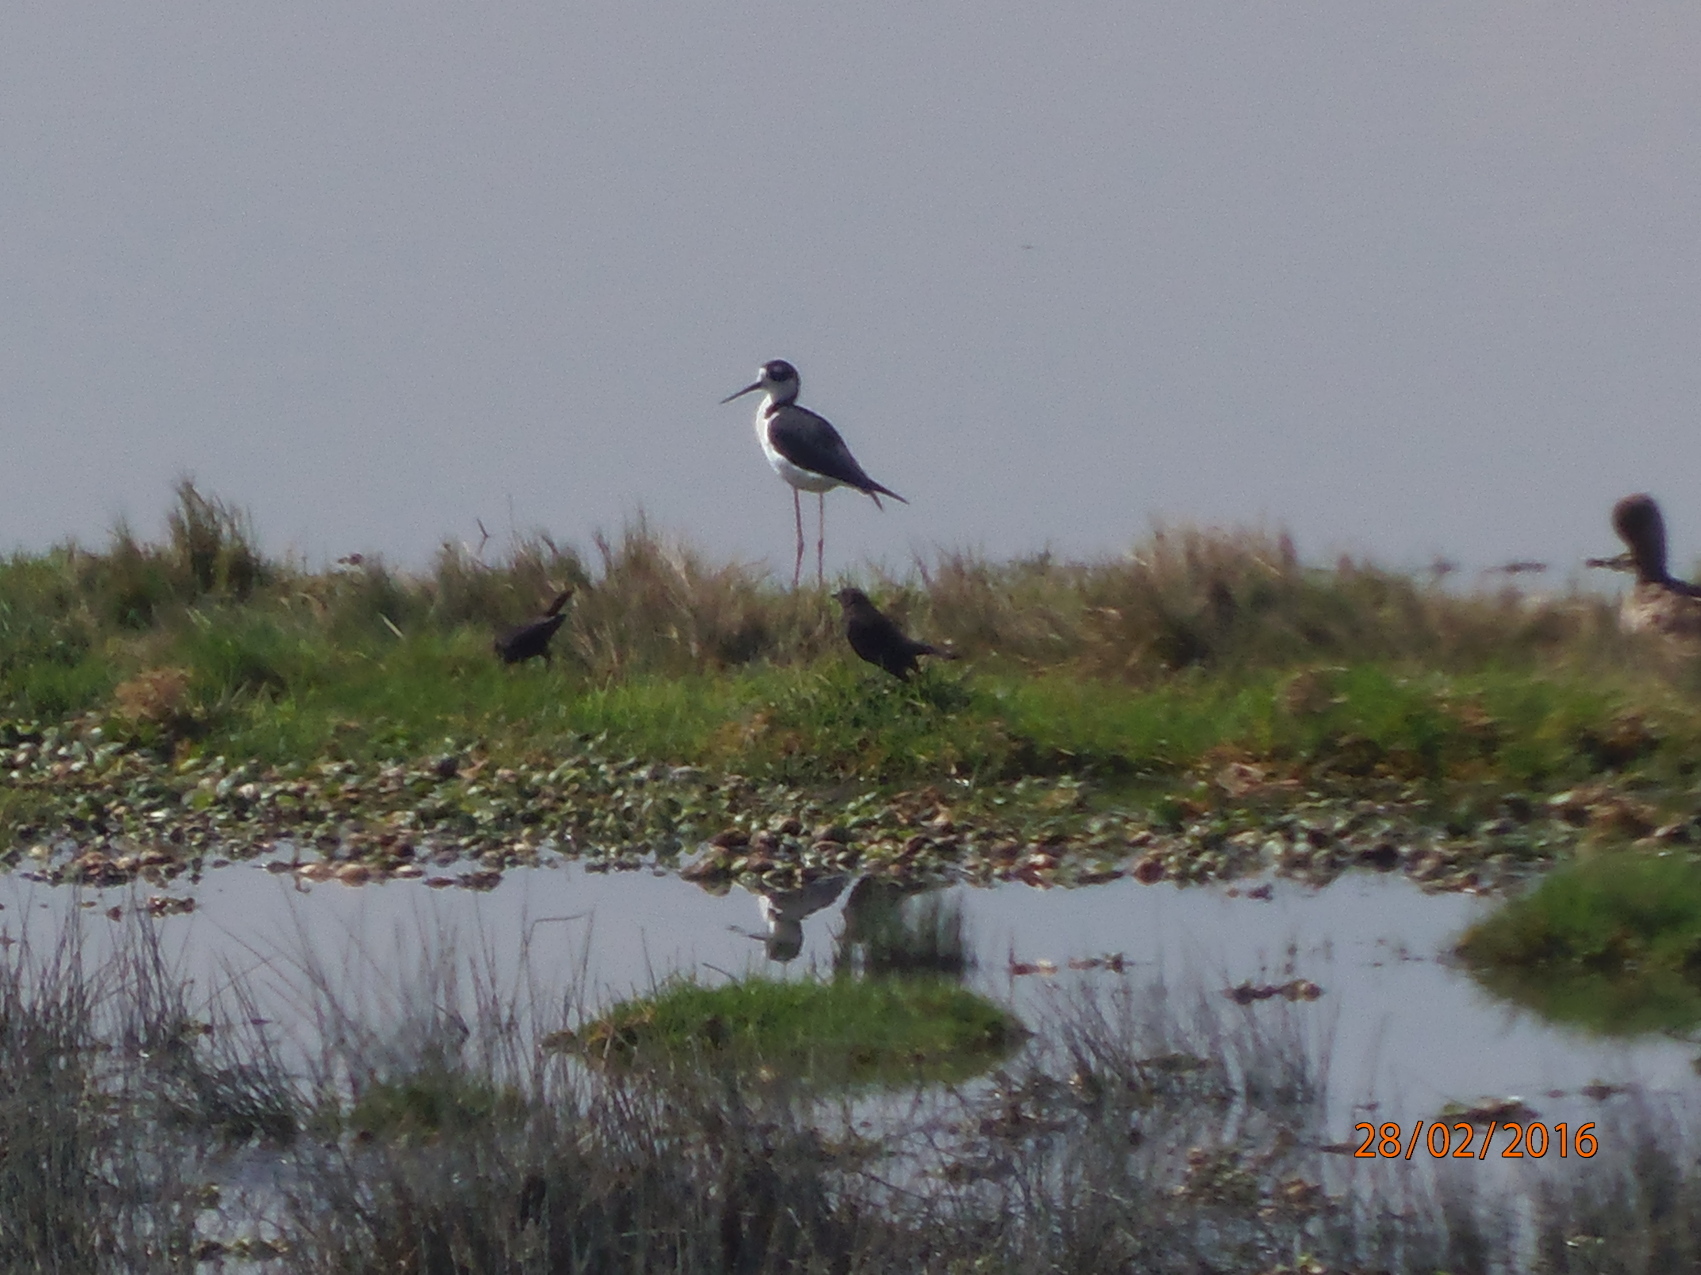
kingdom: Animalia
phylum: Chordata
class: Aves
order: Charadriiformes
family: Recurvirostridae
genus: Himantopus
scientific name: Himantopus mexicanus
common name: Black-necked stilt
